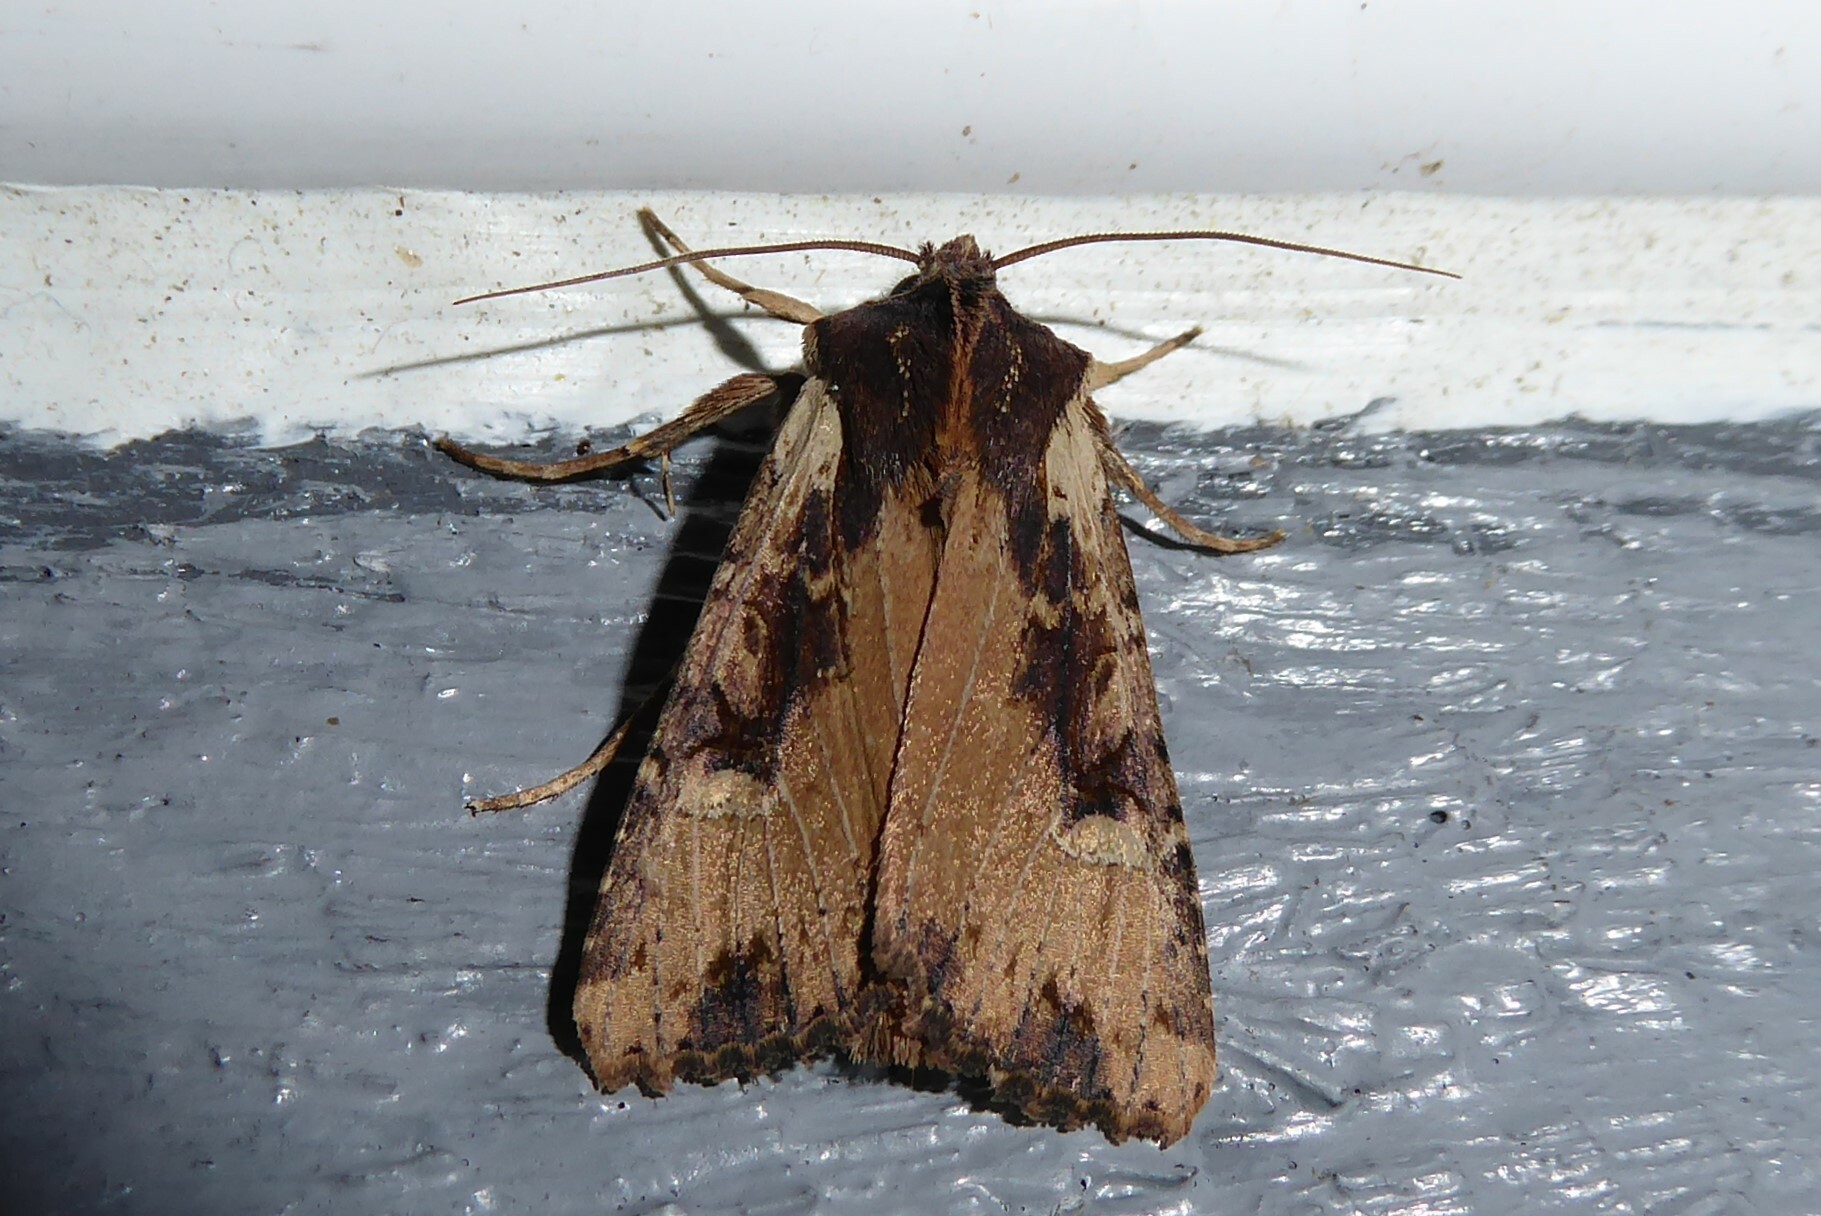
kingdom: Animalia
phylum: Arthropoda
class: Insecta
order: Lepidoptera
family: Noctuidae
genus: Ichneutica
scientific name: Ichneutica omoplaca
